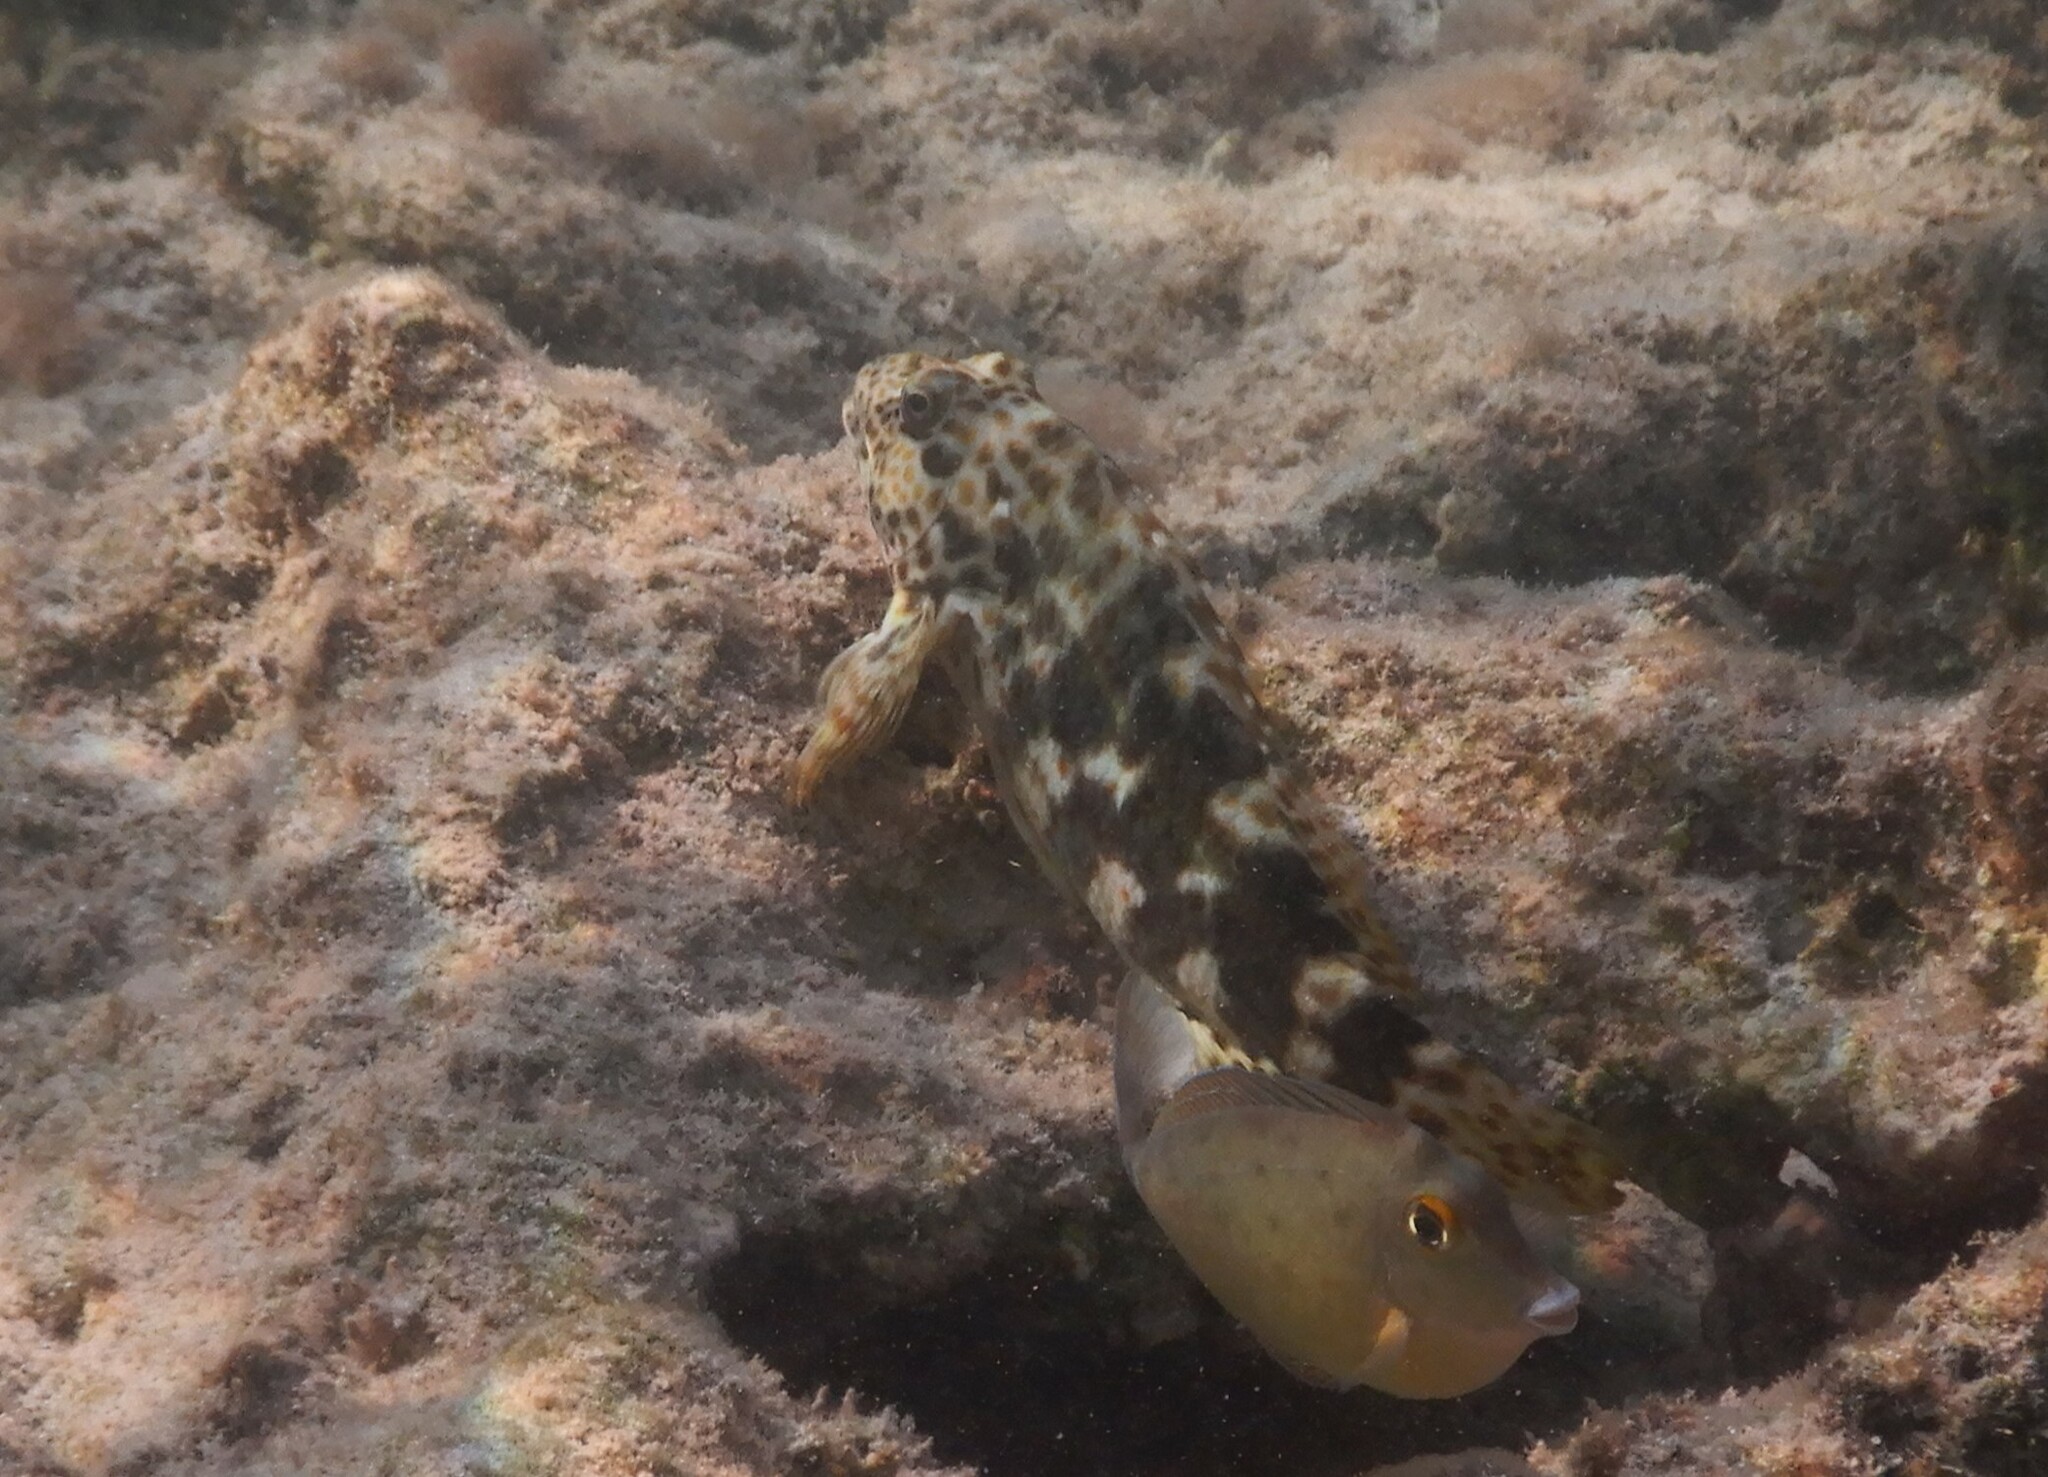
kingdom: Animalia
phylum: Chordata
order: Perciformes
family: Cirrhitidae
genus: Cirrhitus
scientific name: Cirrhitus pinnulatus
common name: Stocky hawkfish
